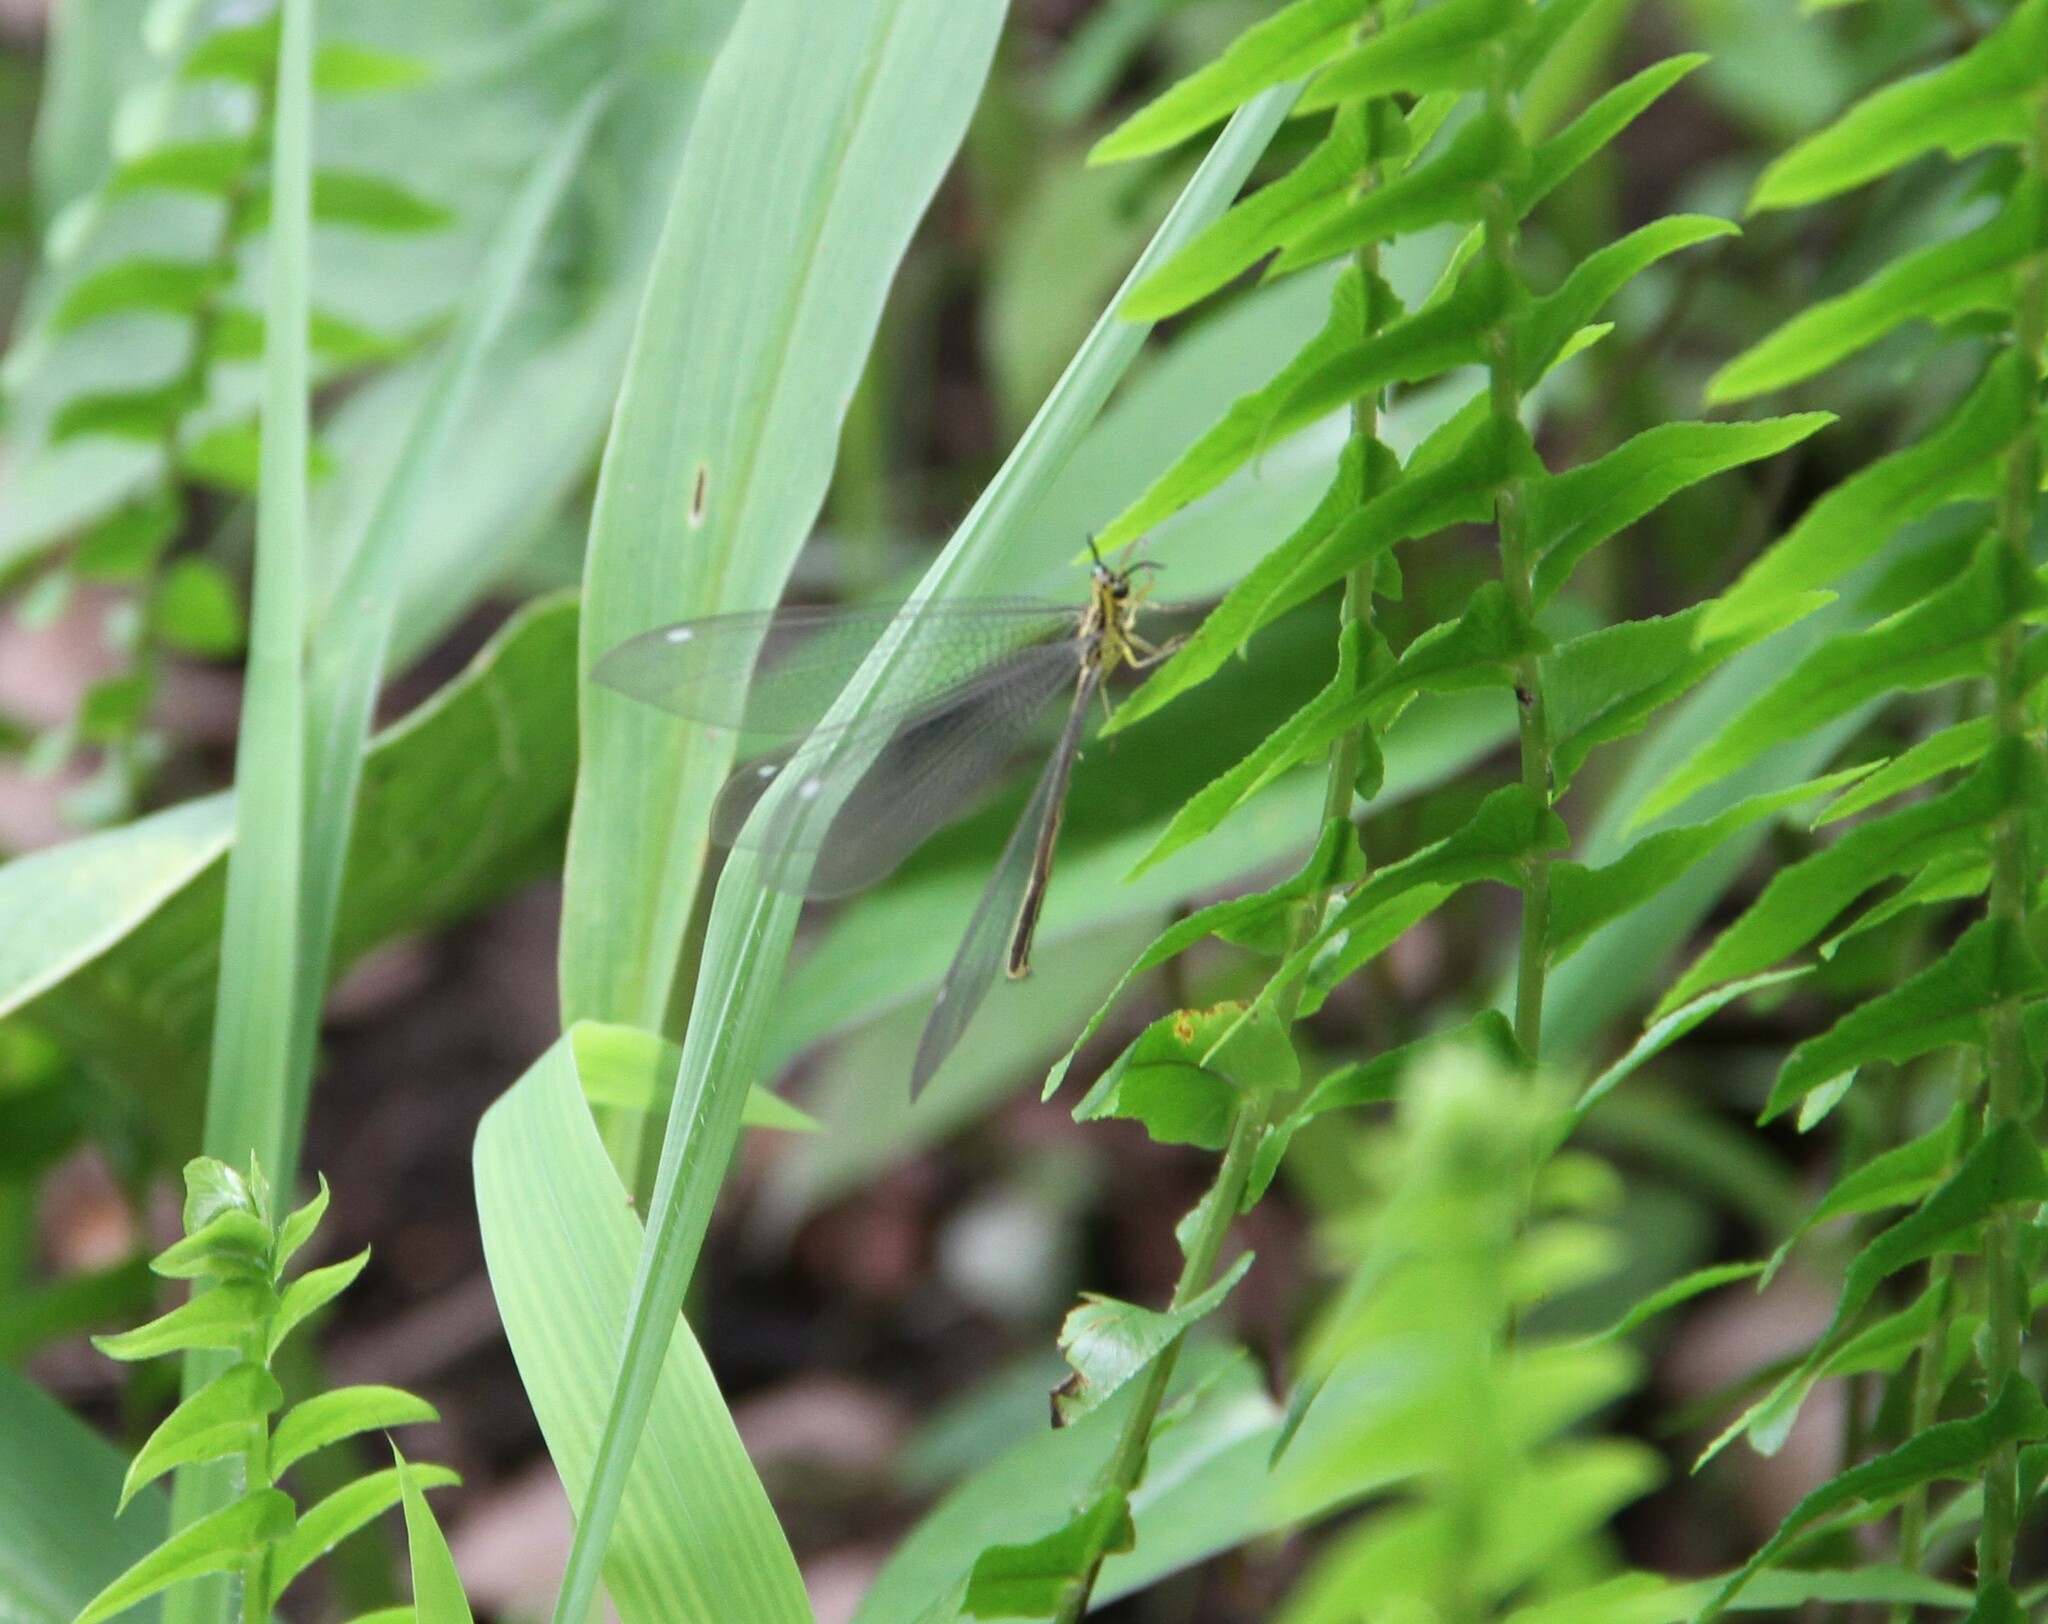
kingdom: Animalia
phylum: Arthropoda
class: Insecta
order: Neuroptera
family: Myrmeleontidae
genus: Hagenomyia
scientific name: Hagenomyia tristis
